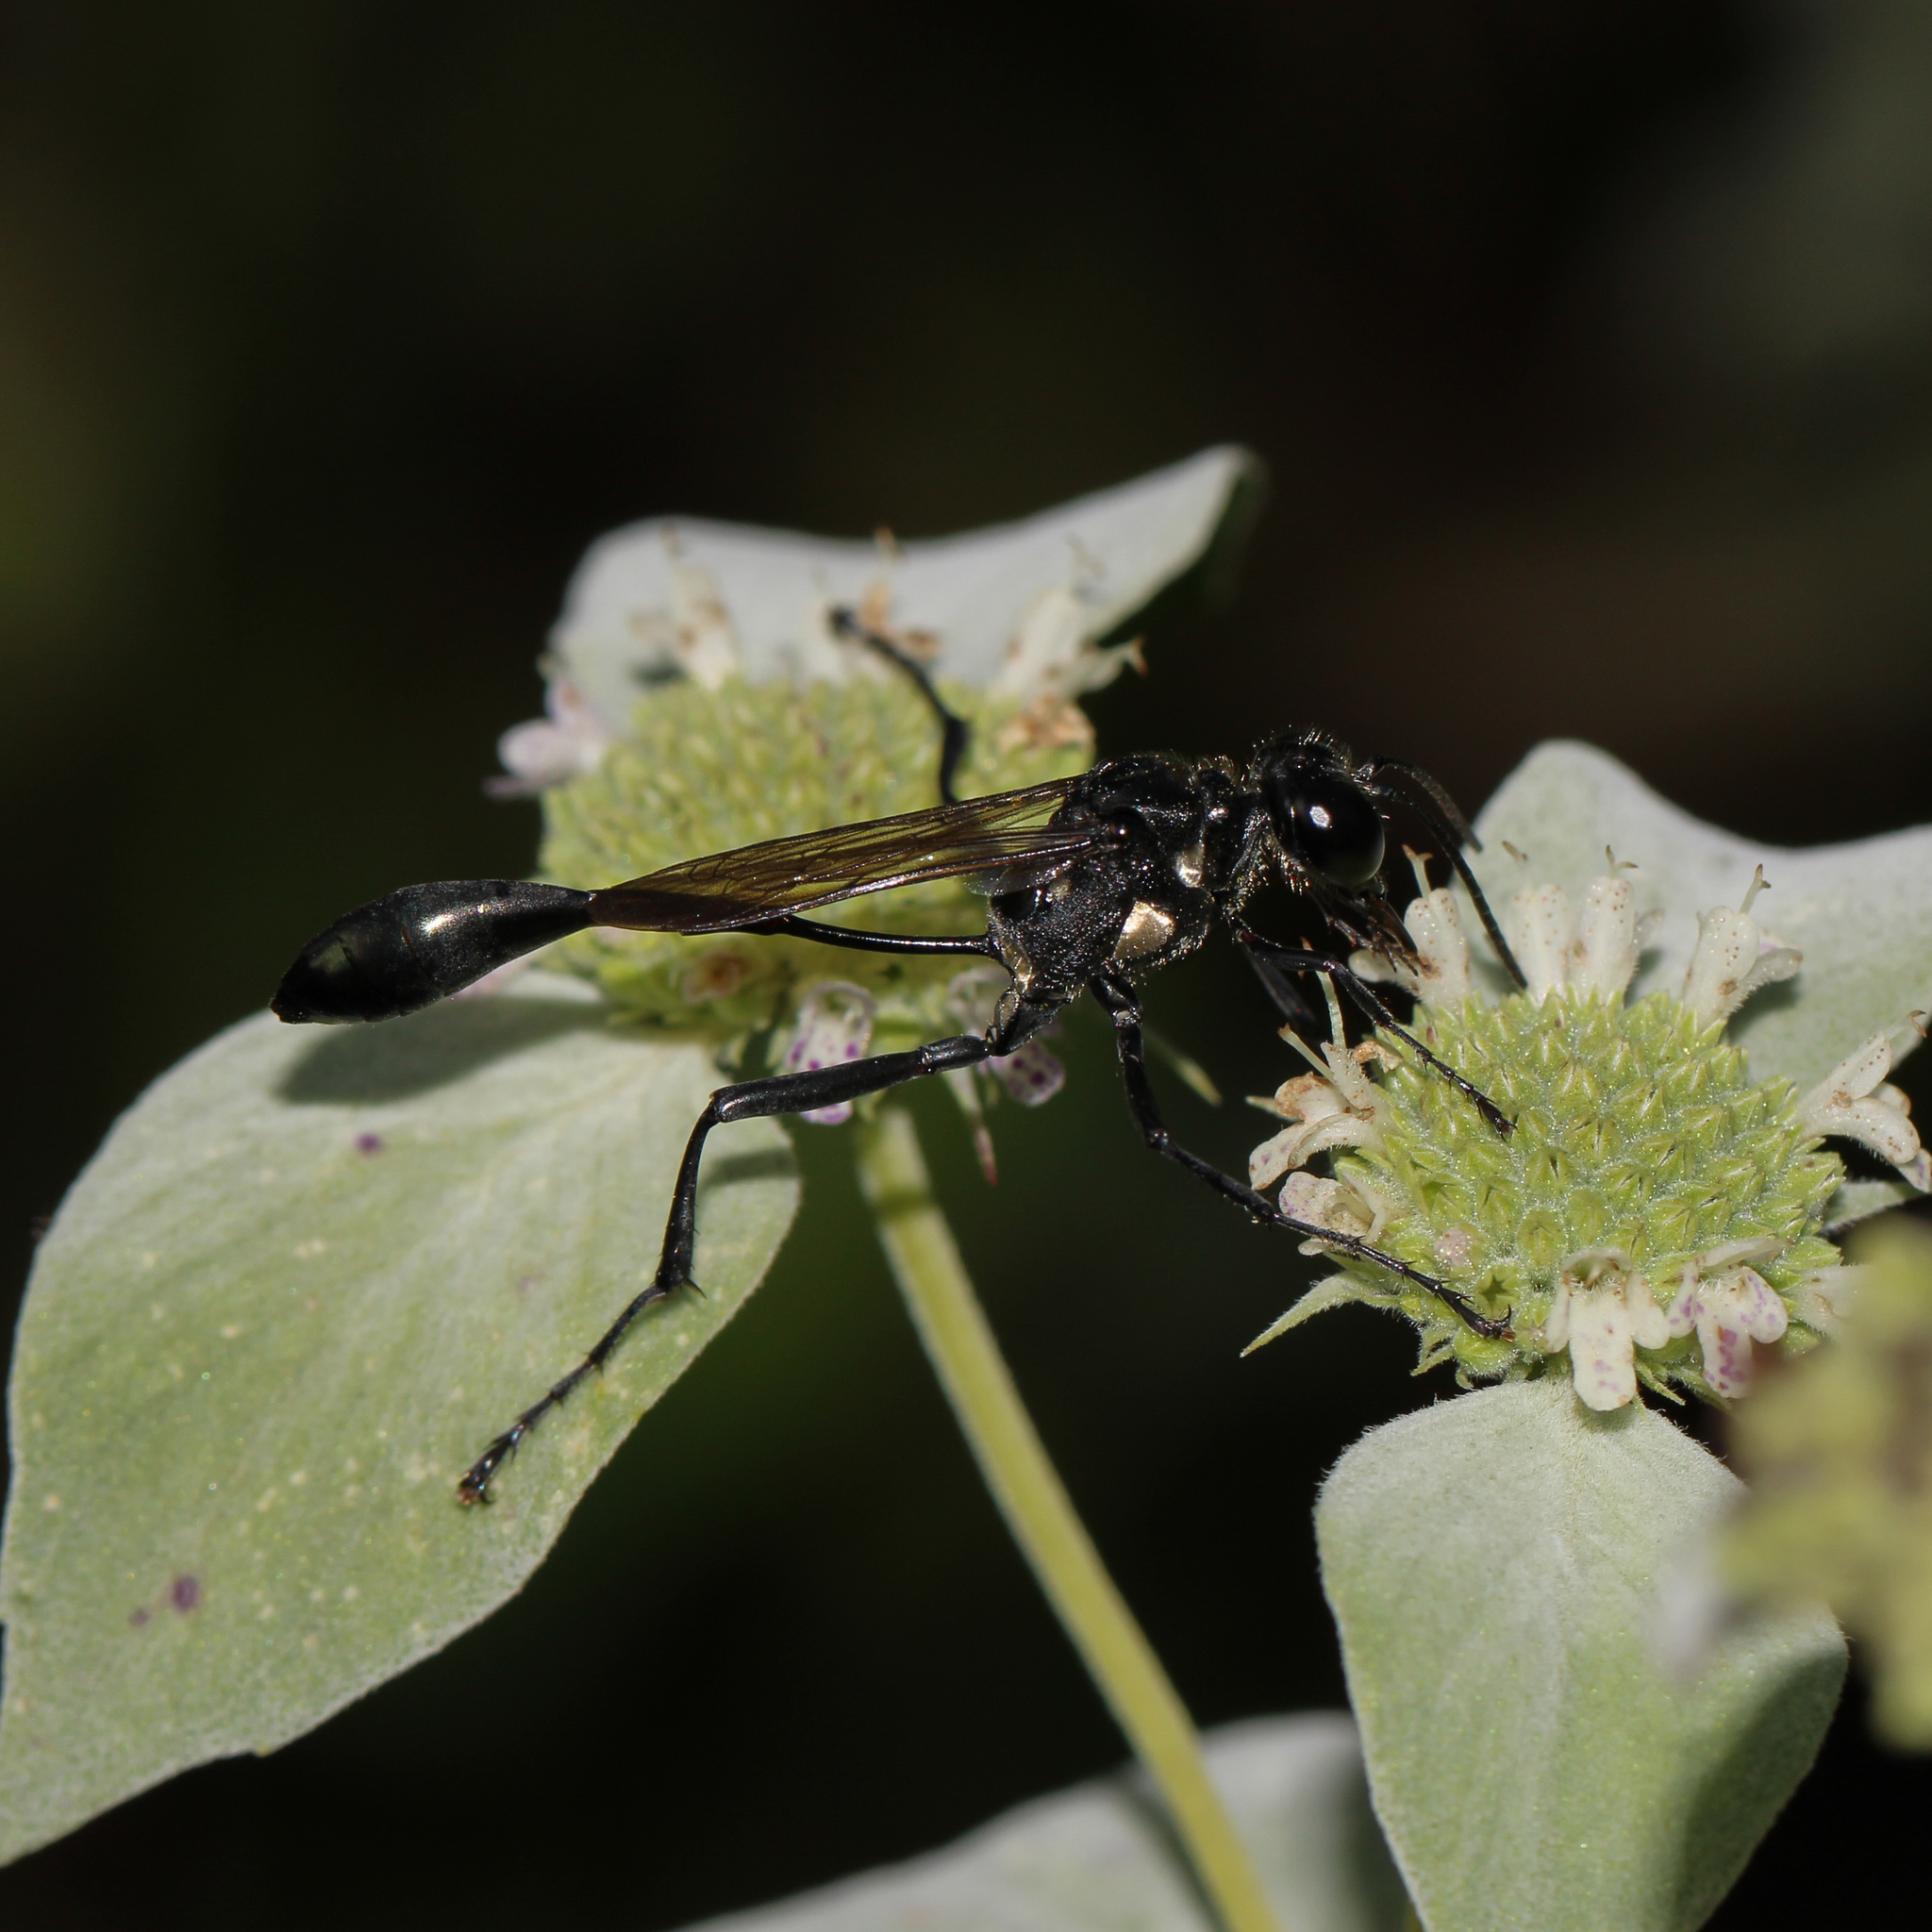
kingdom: Animalia
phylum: Arthropoda
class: Insecta
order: Hymenoptera
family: Sphecidae
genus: Eremnophila
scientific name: Eremnophila aureonotata
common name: Gold-marked thread-waisted wasp
